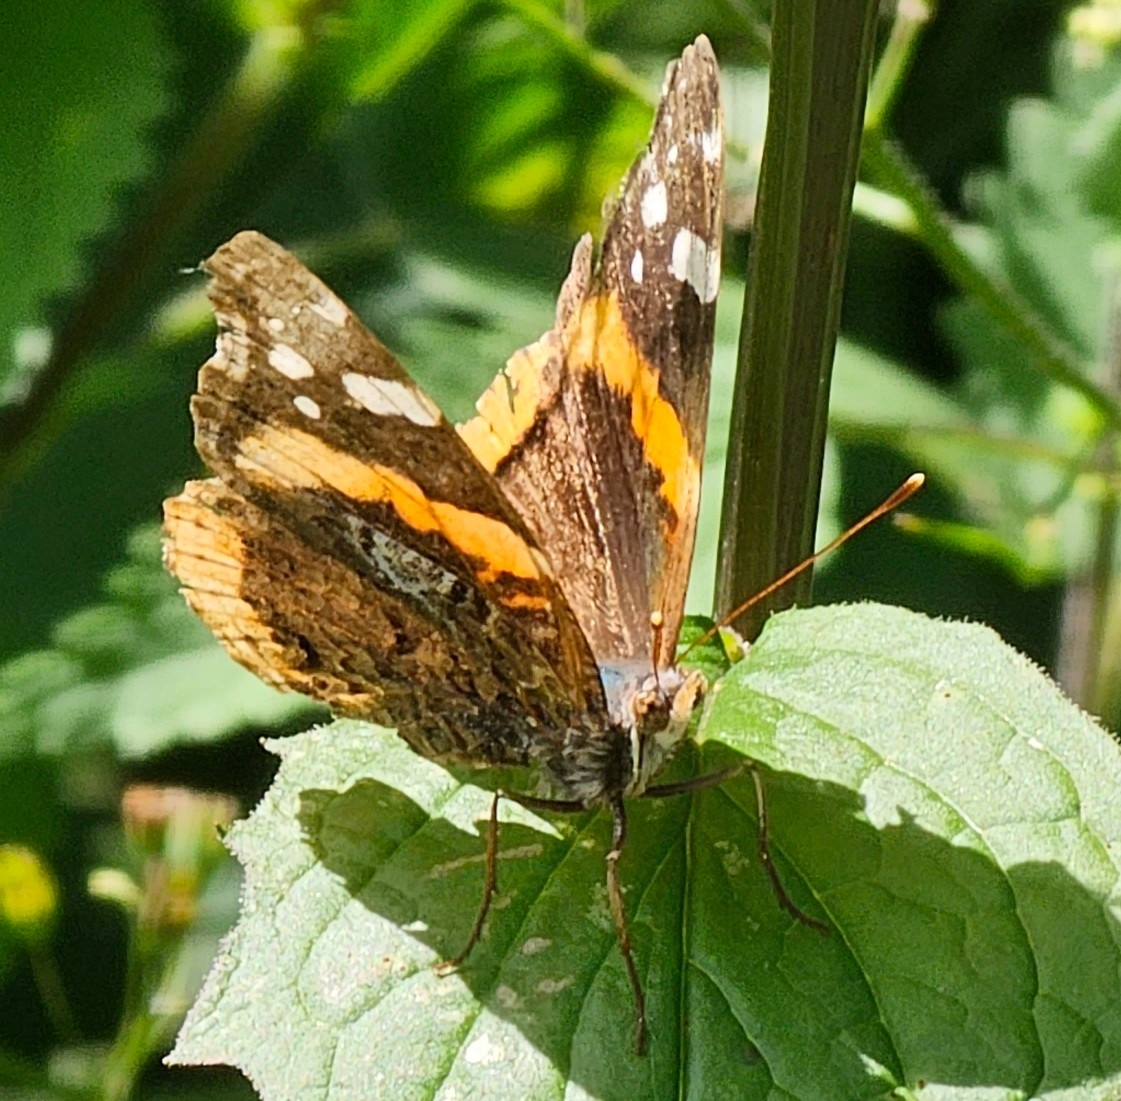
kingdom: Animalia
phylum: Arthropoda
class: Insecta
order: Lepidoptera
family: Nymphalidae
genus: Vanessa
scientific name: Vanessa atalanta
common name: Red admiral
